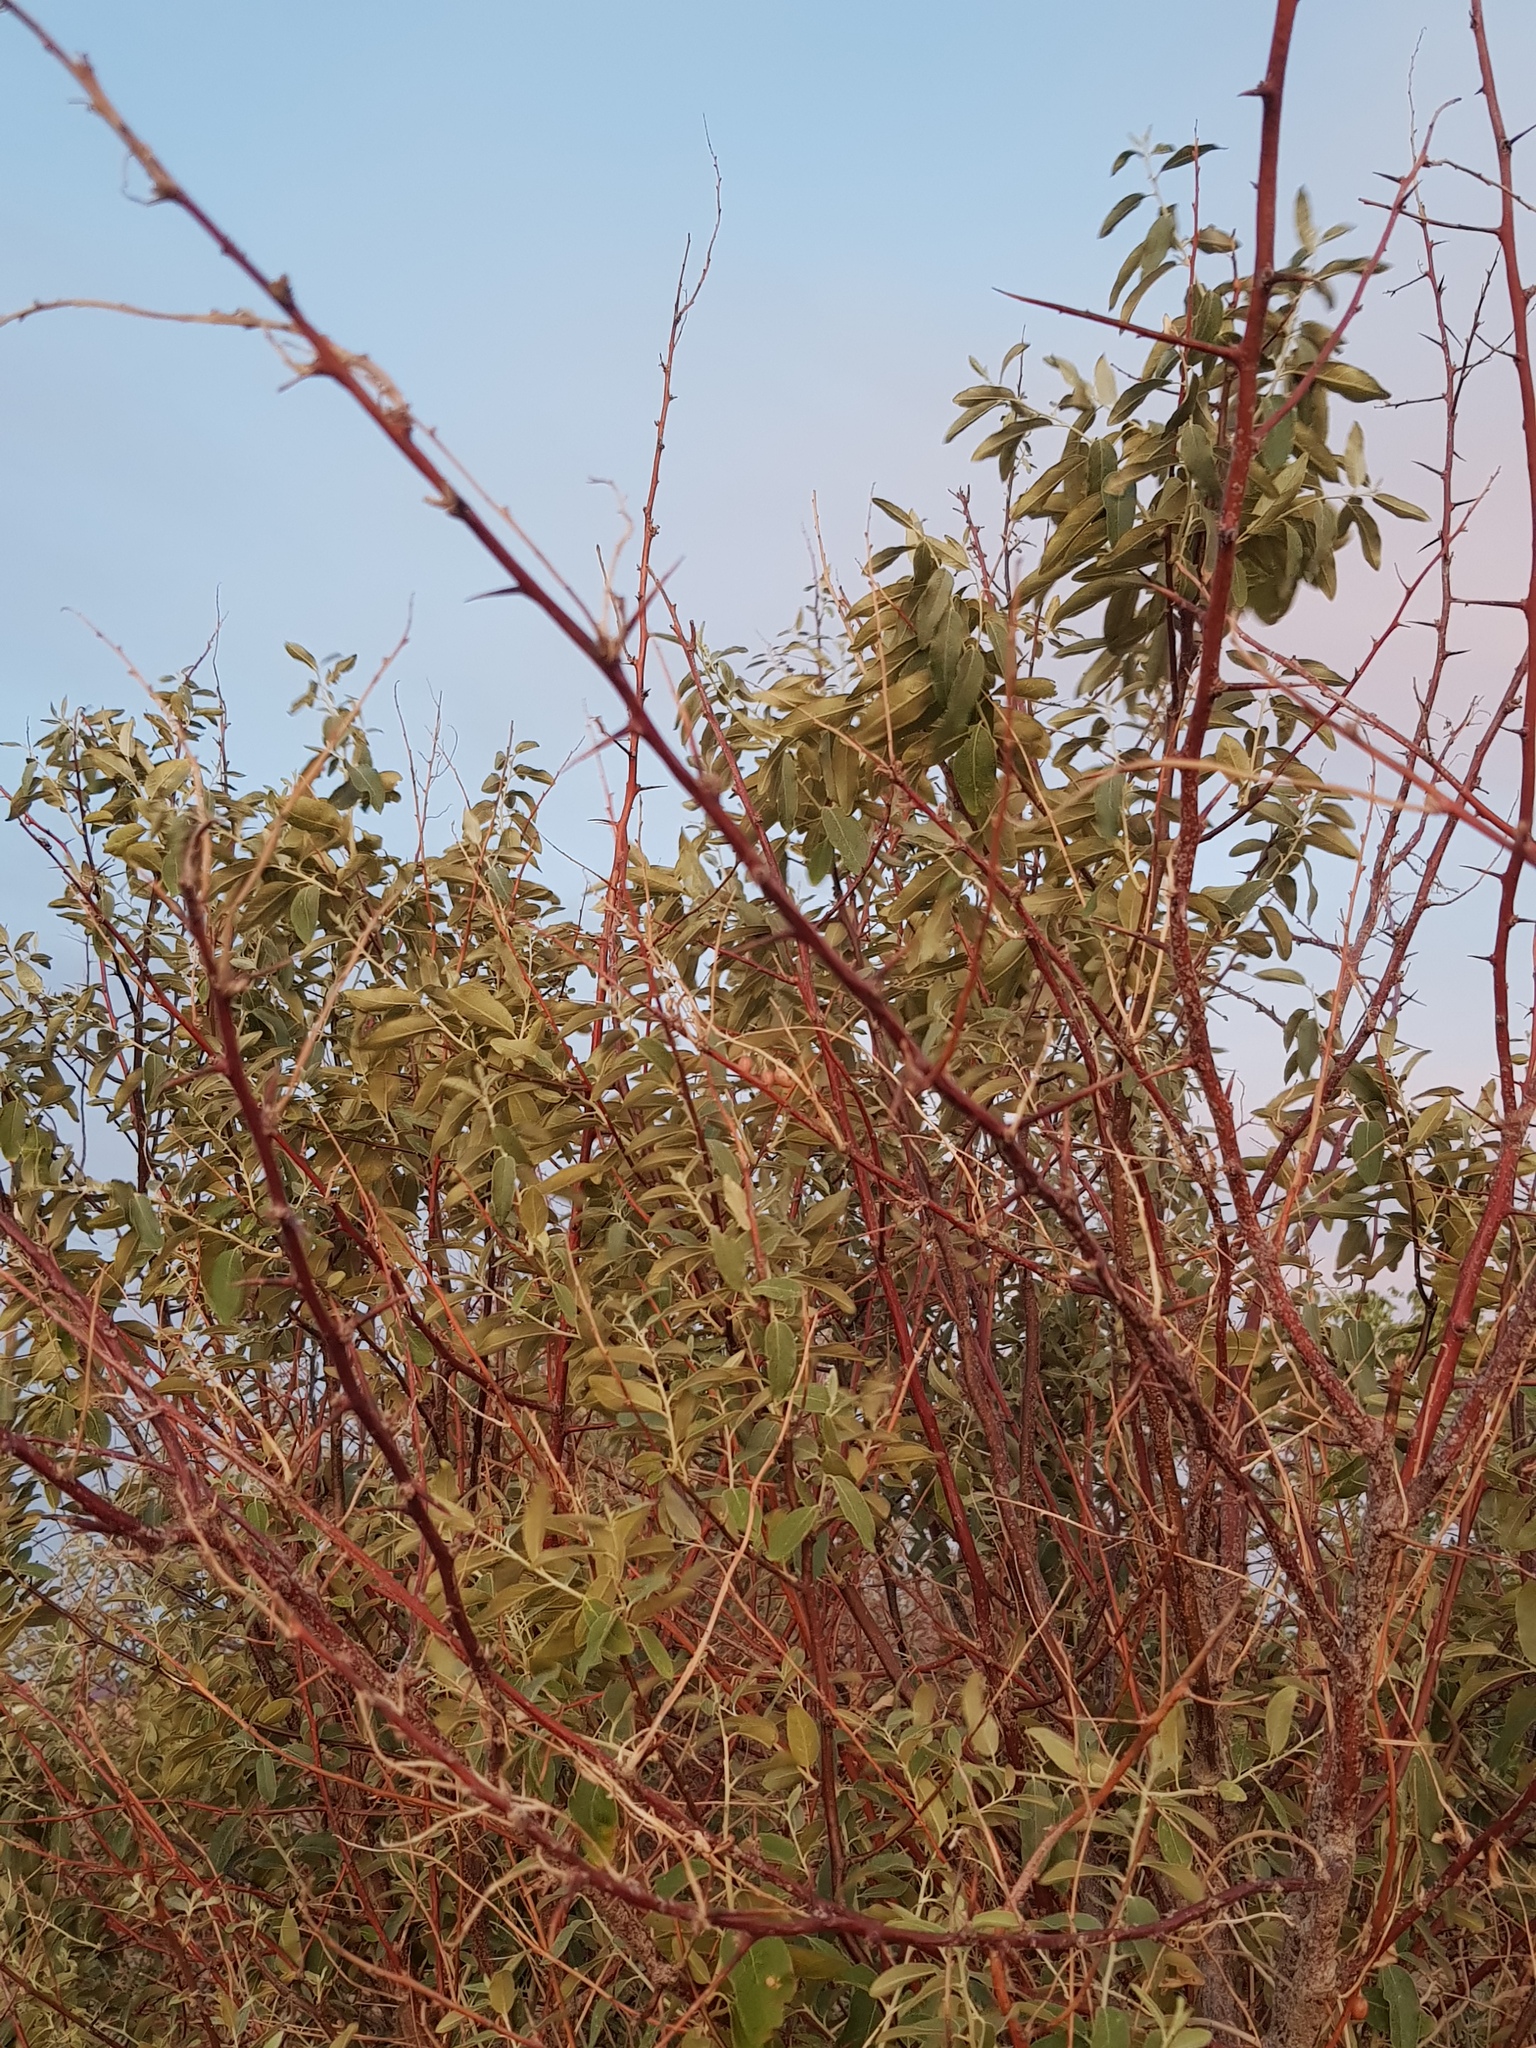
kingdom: Plantae
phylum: Tracheophyta
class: Magnoliopsida
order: Rosales
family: Elaeagnaceae
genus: Elaeagnus
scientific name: Elaeagnus angustifolia
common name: Russian olive
